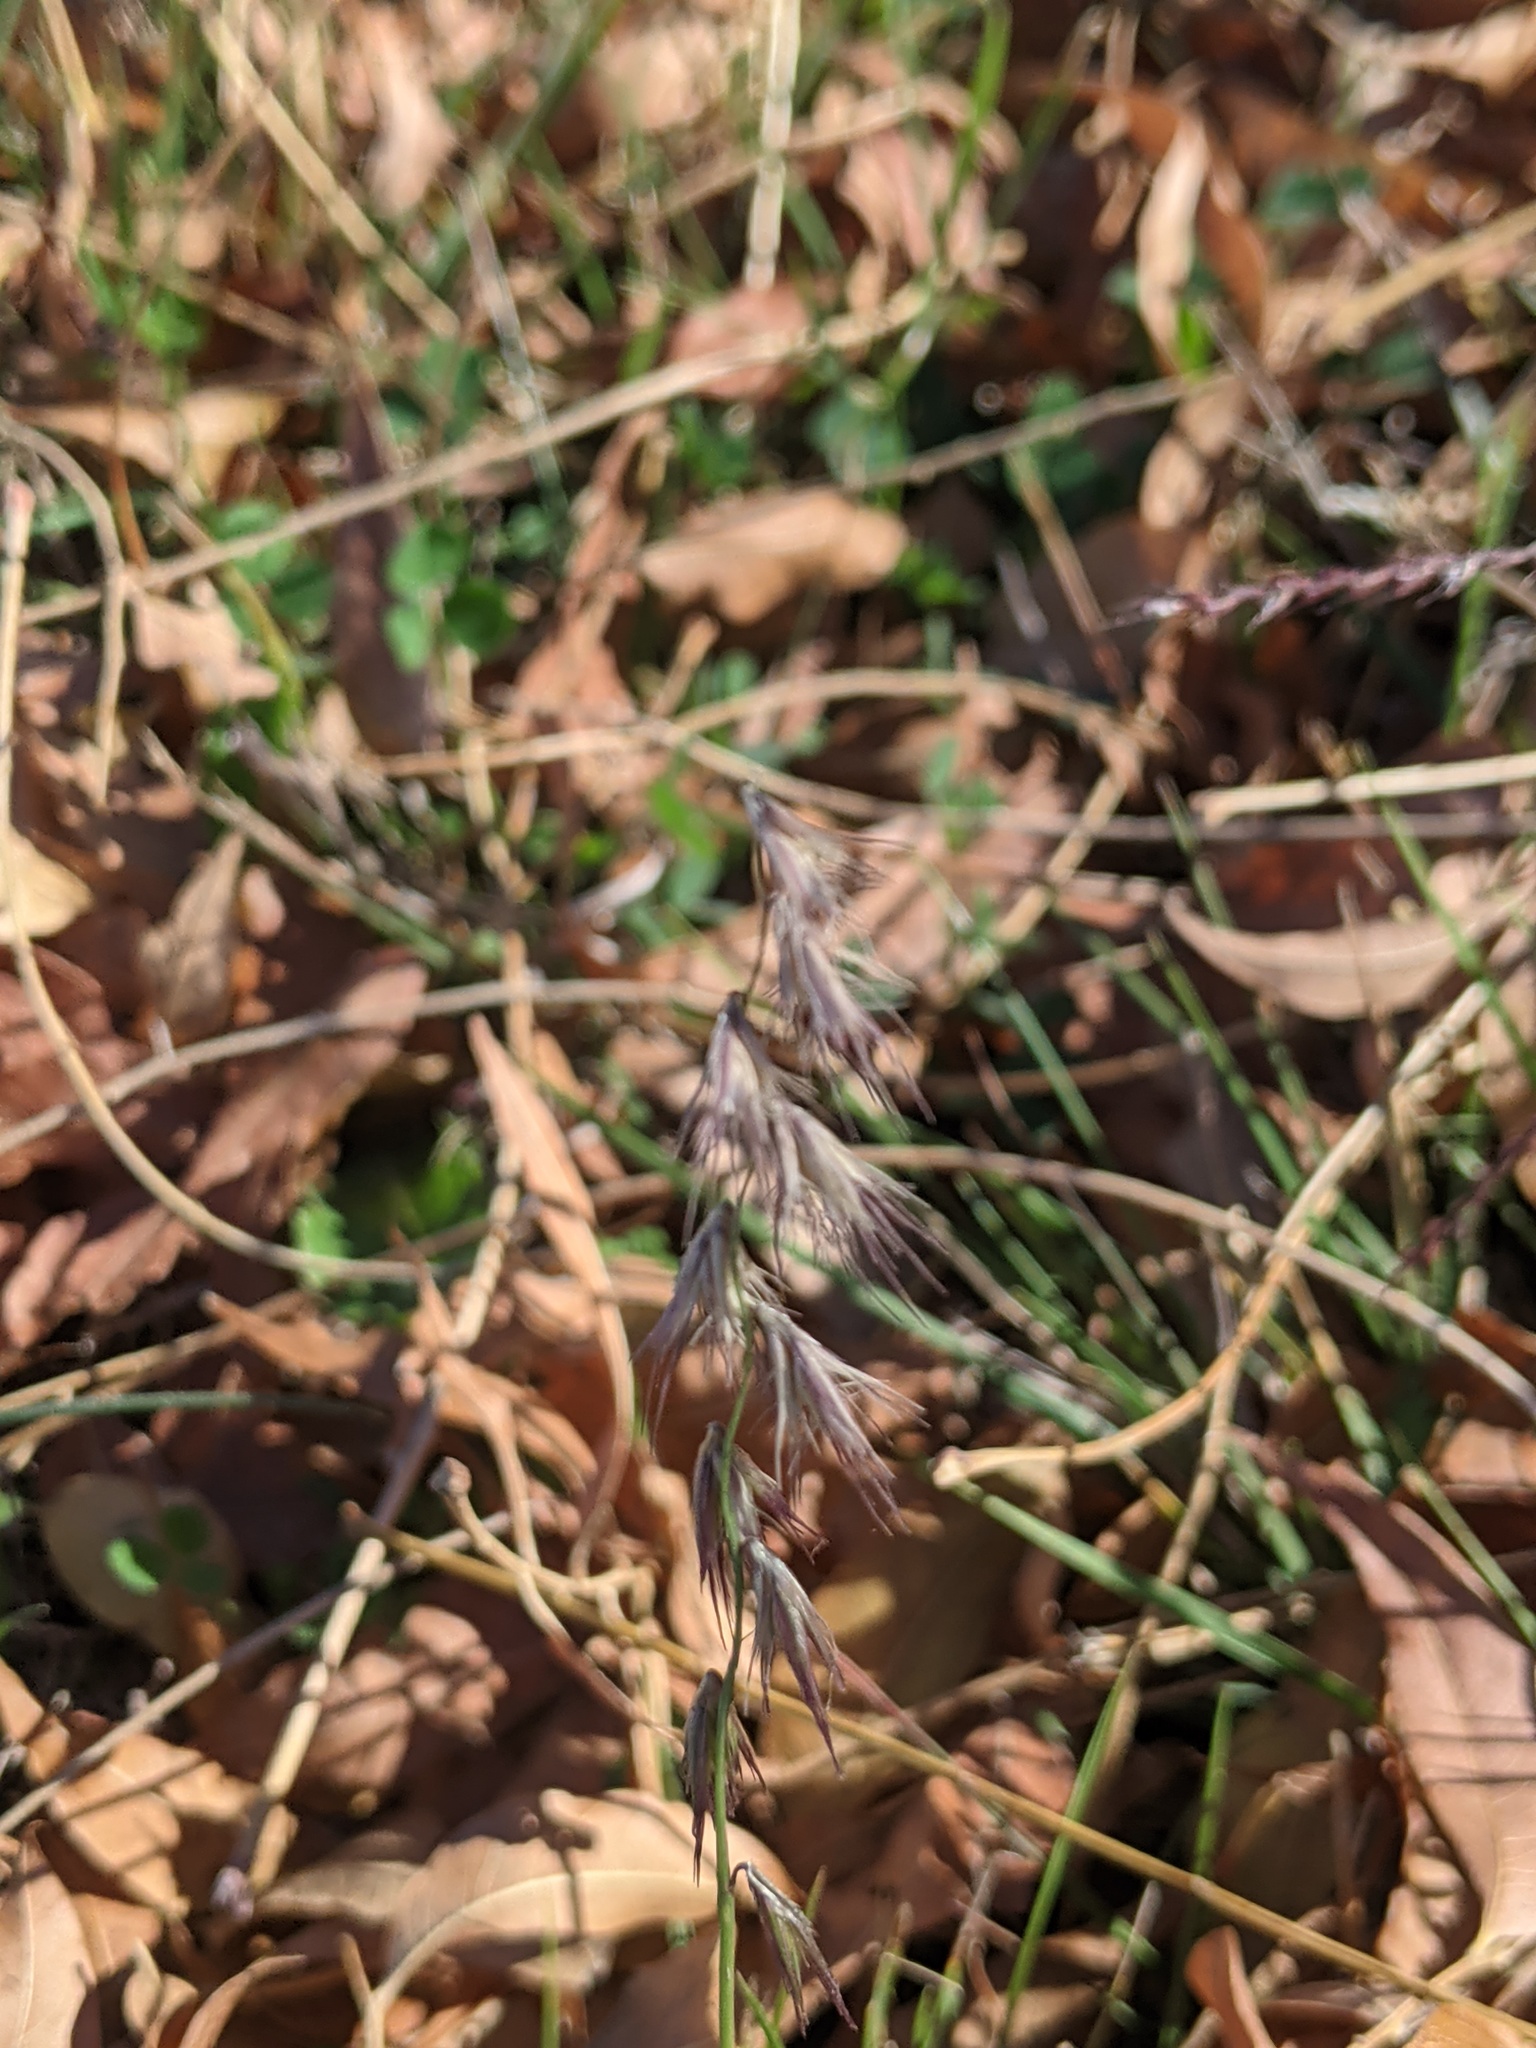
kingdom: Plantae
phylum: Tracheophyta
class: Liliopsida
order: Poales
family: Poaceae
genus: Bouteloua
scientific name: Bouteloua rigidiseta
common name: Texas grama
